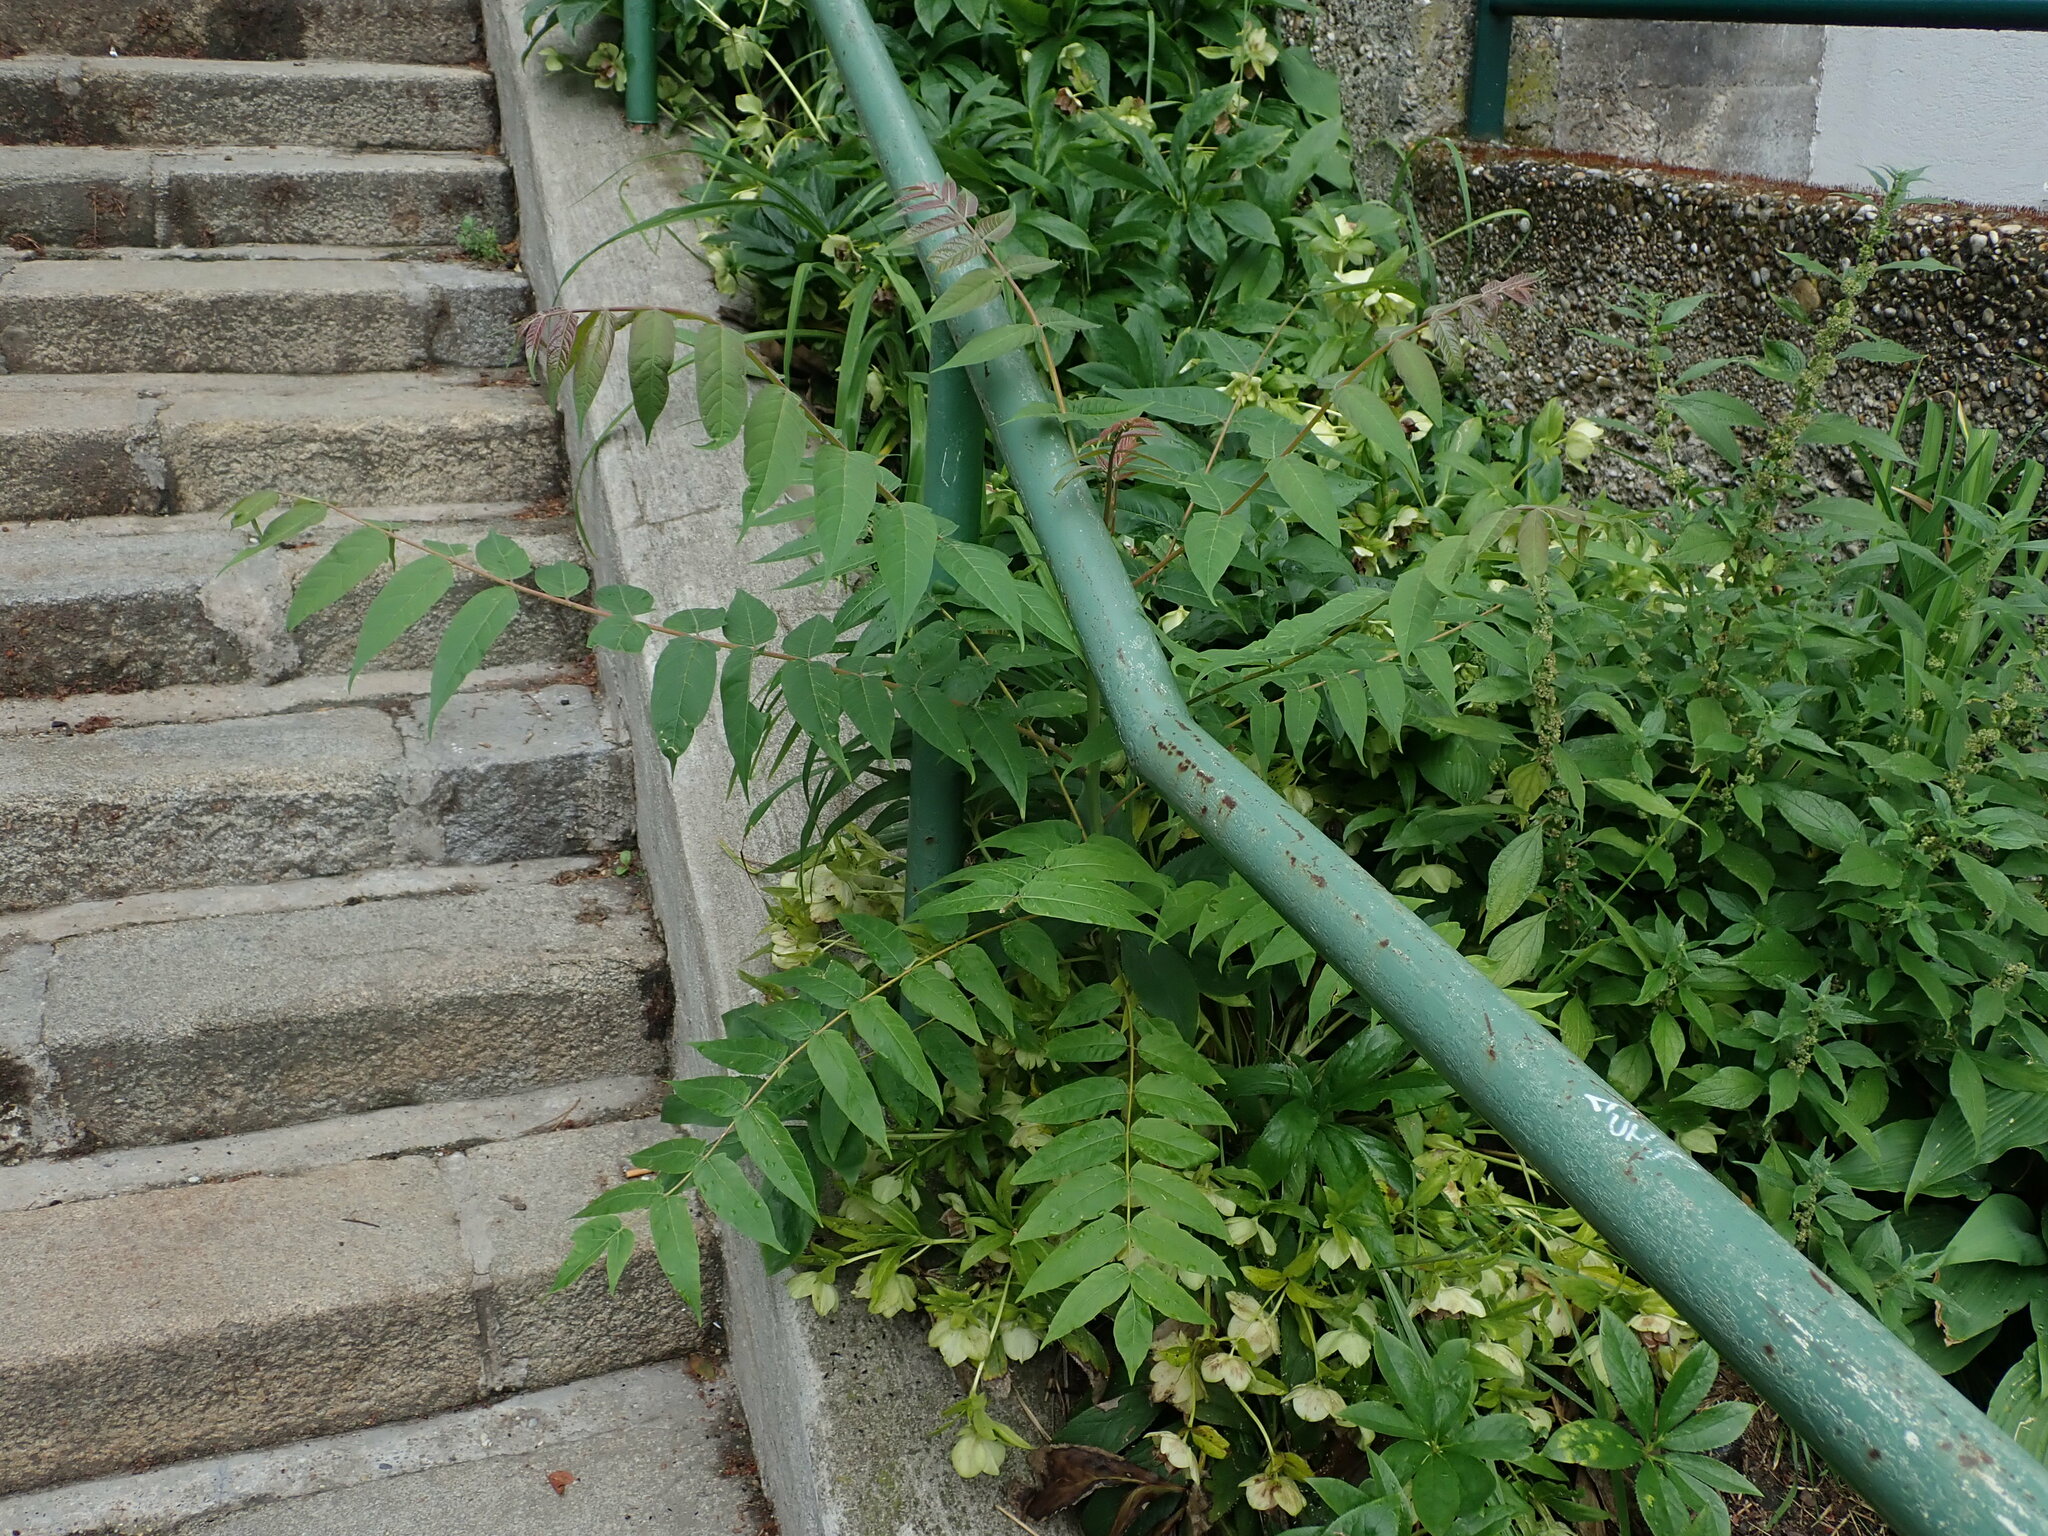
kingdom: Plantae
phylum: Tracheophyta
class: Magnoliopsida
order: Sapindales
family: Simaroubaceae
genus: Ailanthus
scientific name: Ailanthus altissima
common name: Tree-of-heaven
